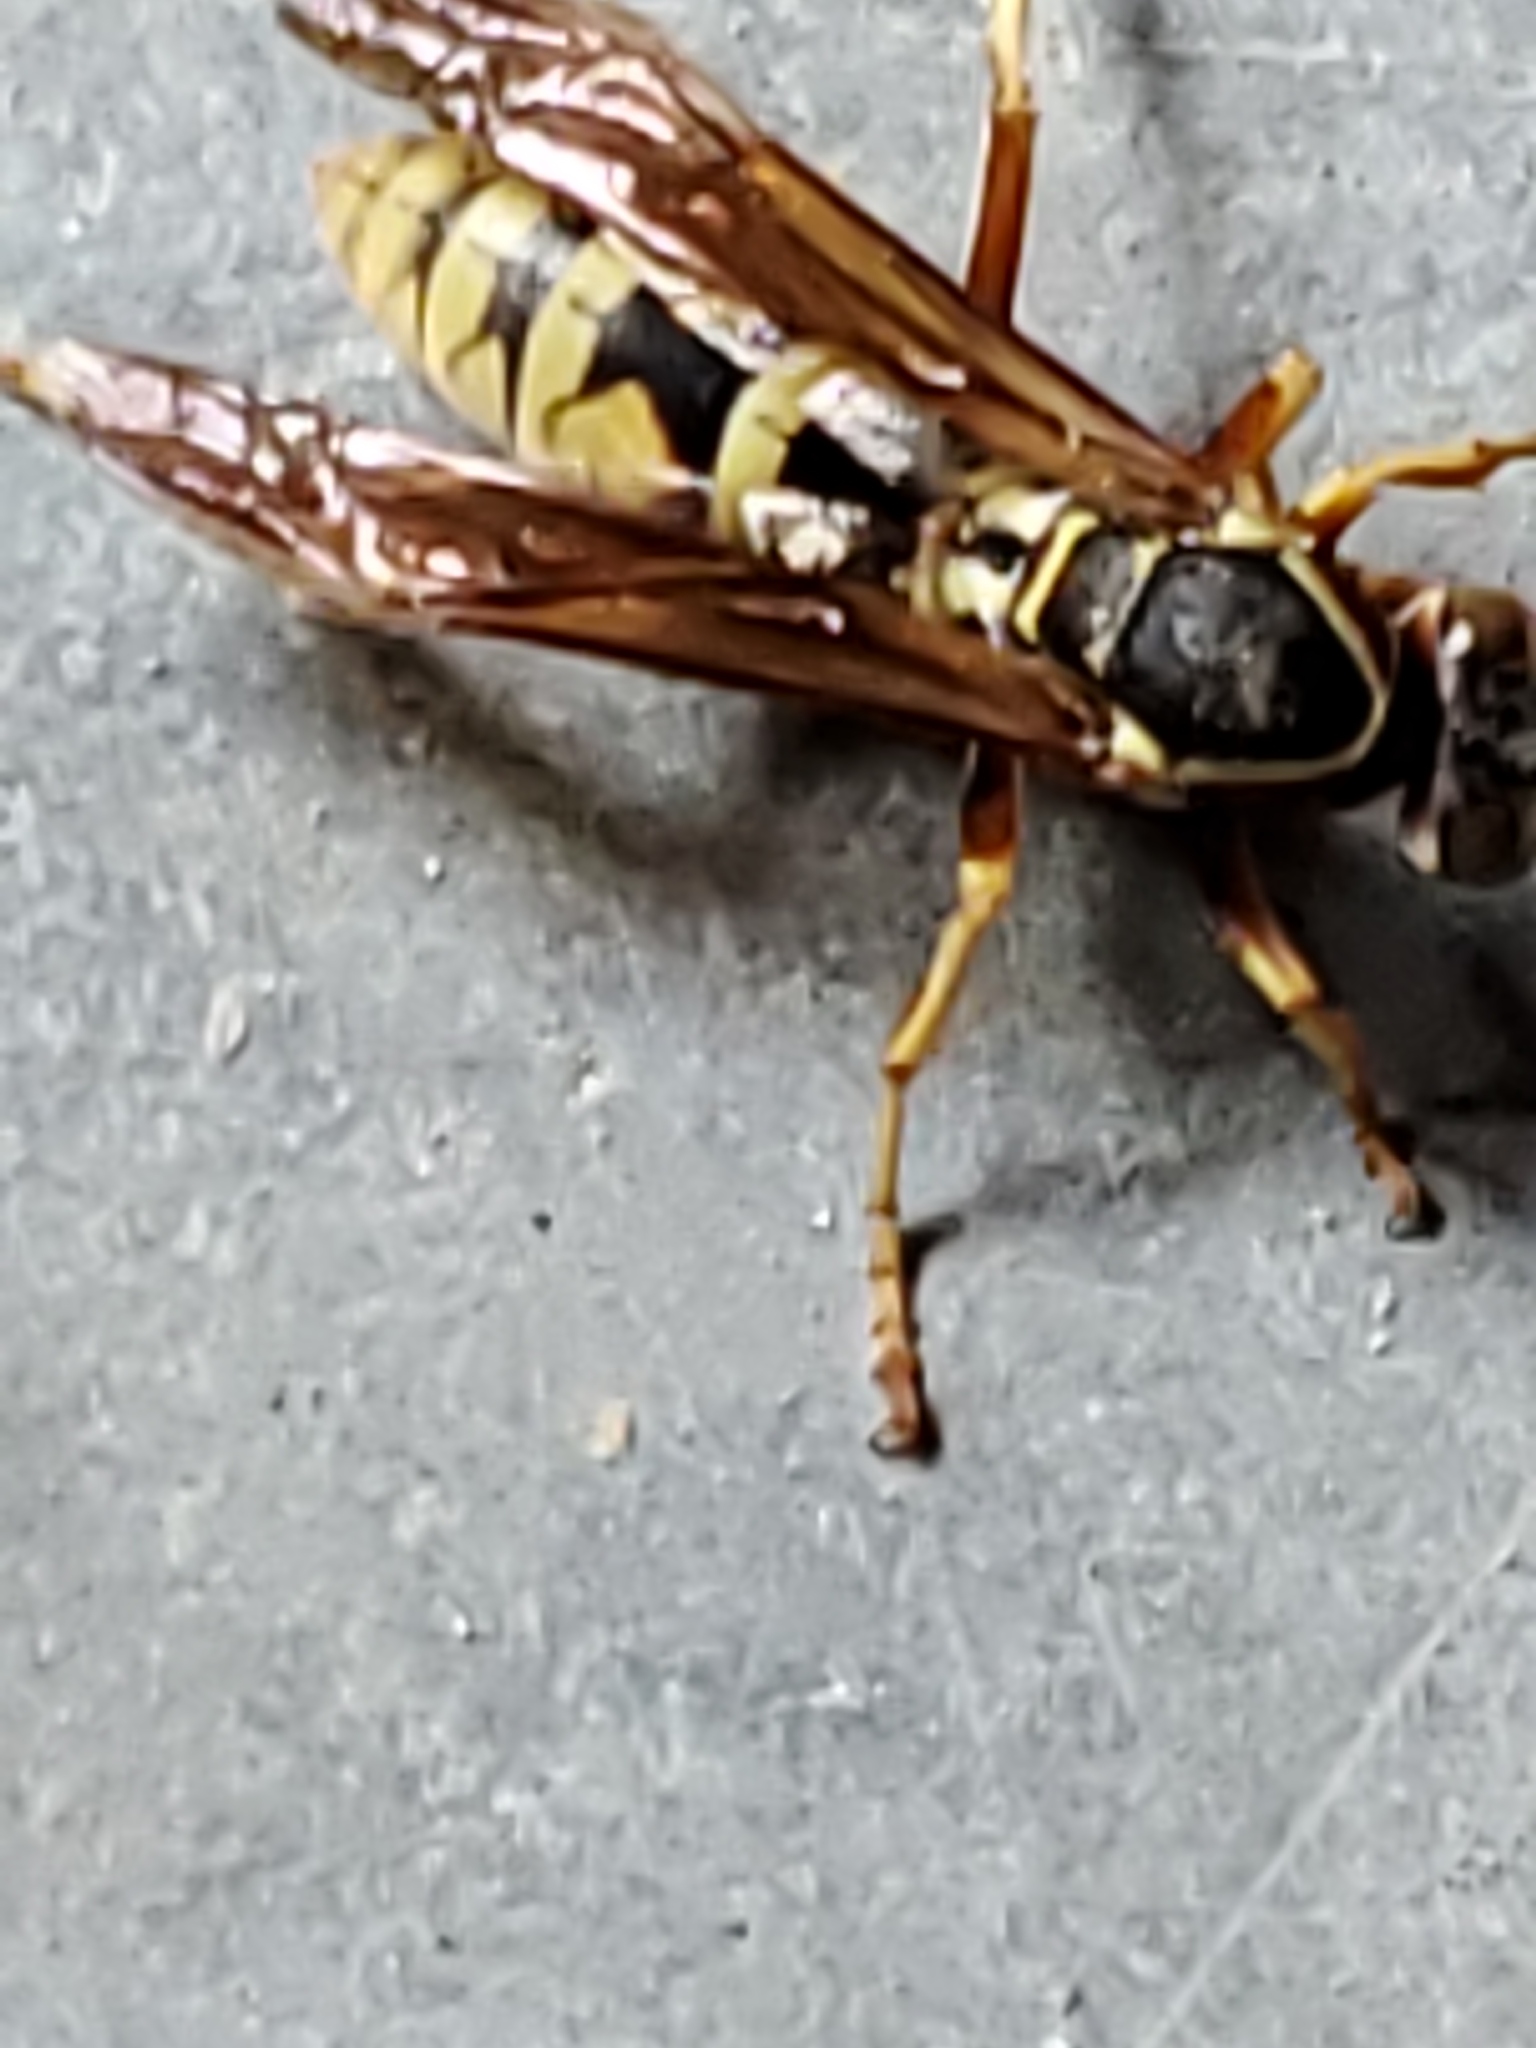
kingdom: Animalia
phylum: Arthropoda
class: Insecta
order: Hymenoptera
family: Eumenidae
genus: Polistes
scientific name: Polistes aurifer
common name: Paper wasp
